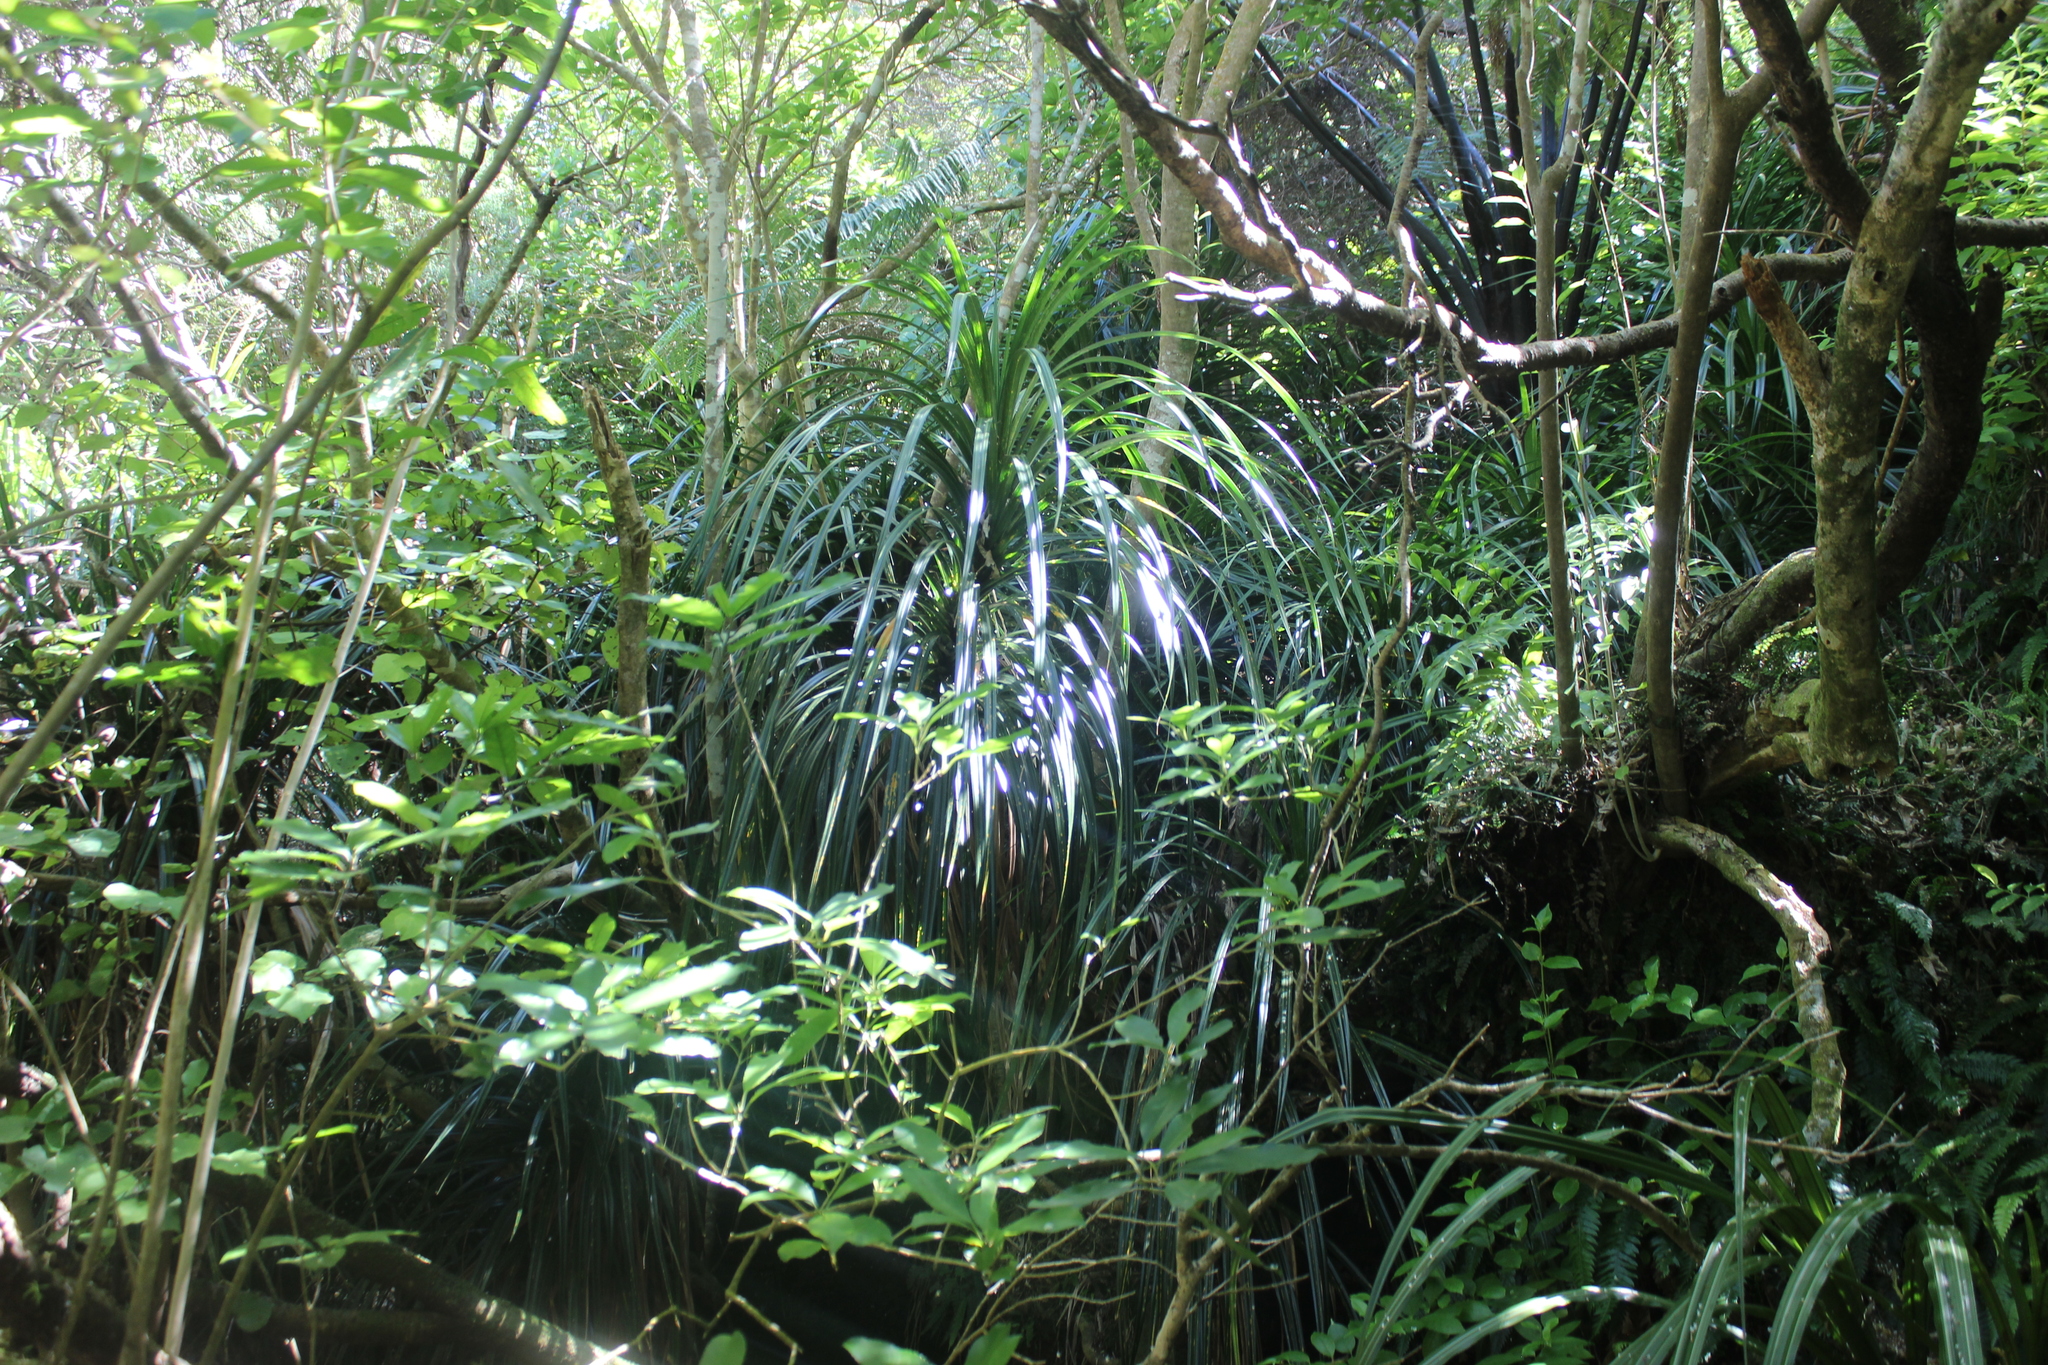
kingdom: Plantae
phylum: Tracheophyta
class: Liliopsida
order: Pandanales
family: Pandanaceae
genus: Freycinetia
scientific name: Freycinetia banksii
